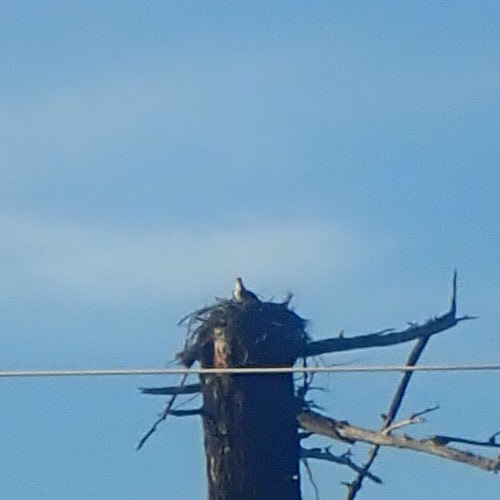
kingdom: Animalia
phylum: Chordata
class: Aves
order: Accipitriformes
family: Pandionidae
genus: Pandion
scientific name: Pandion haliaetus
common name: Osprey
